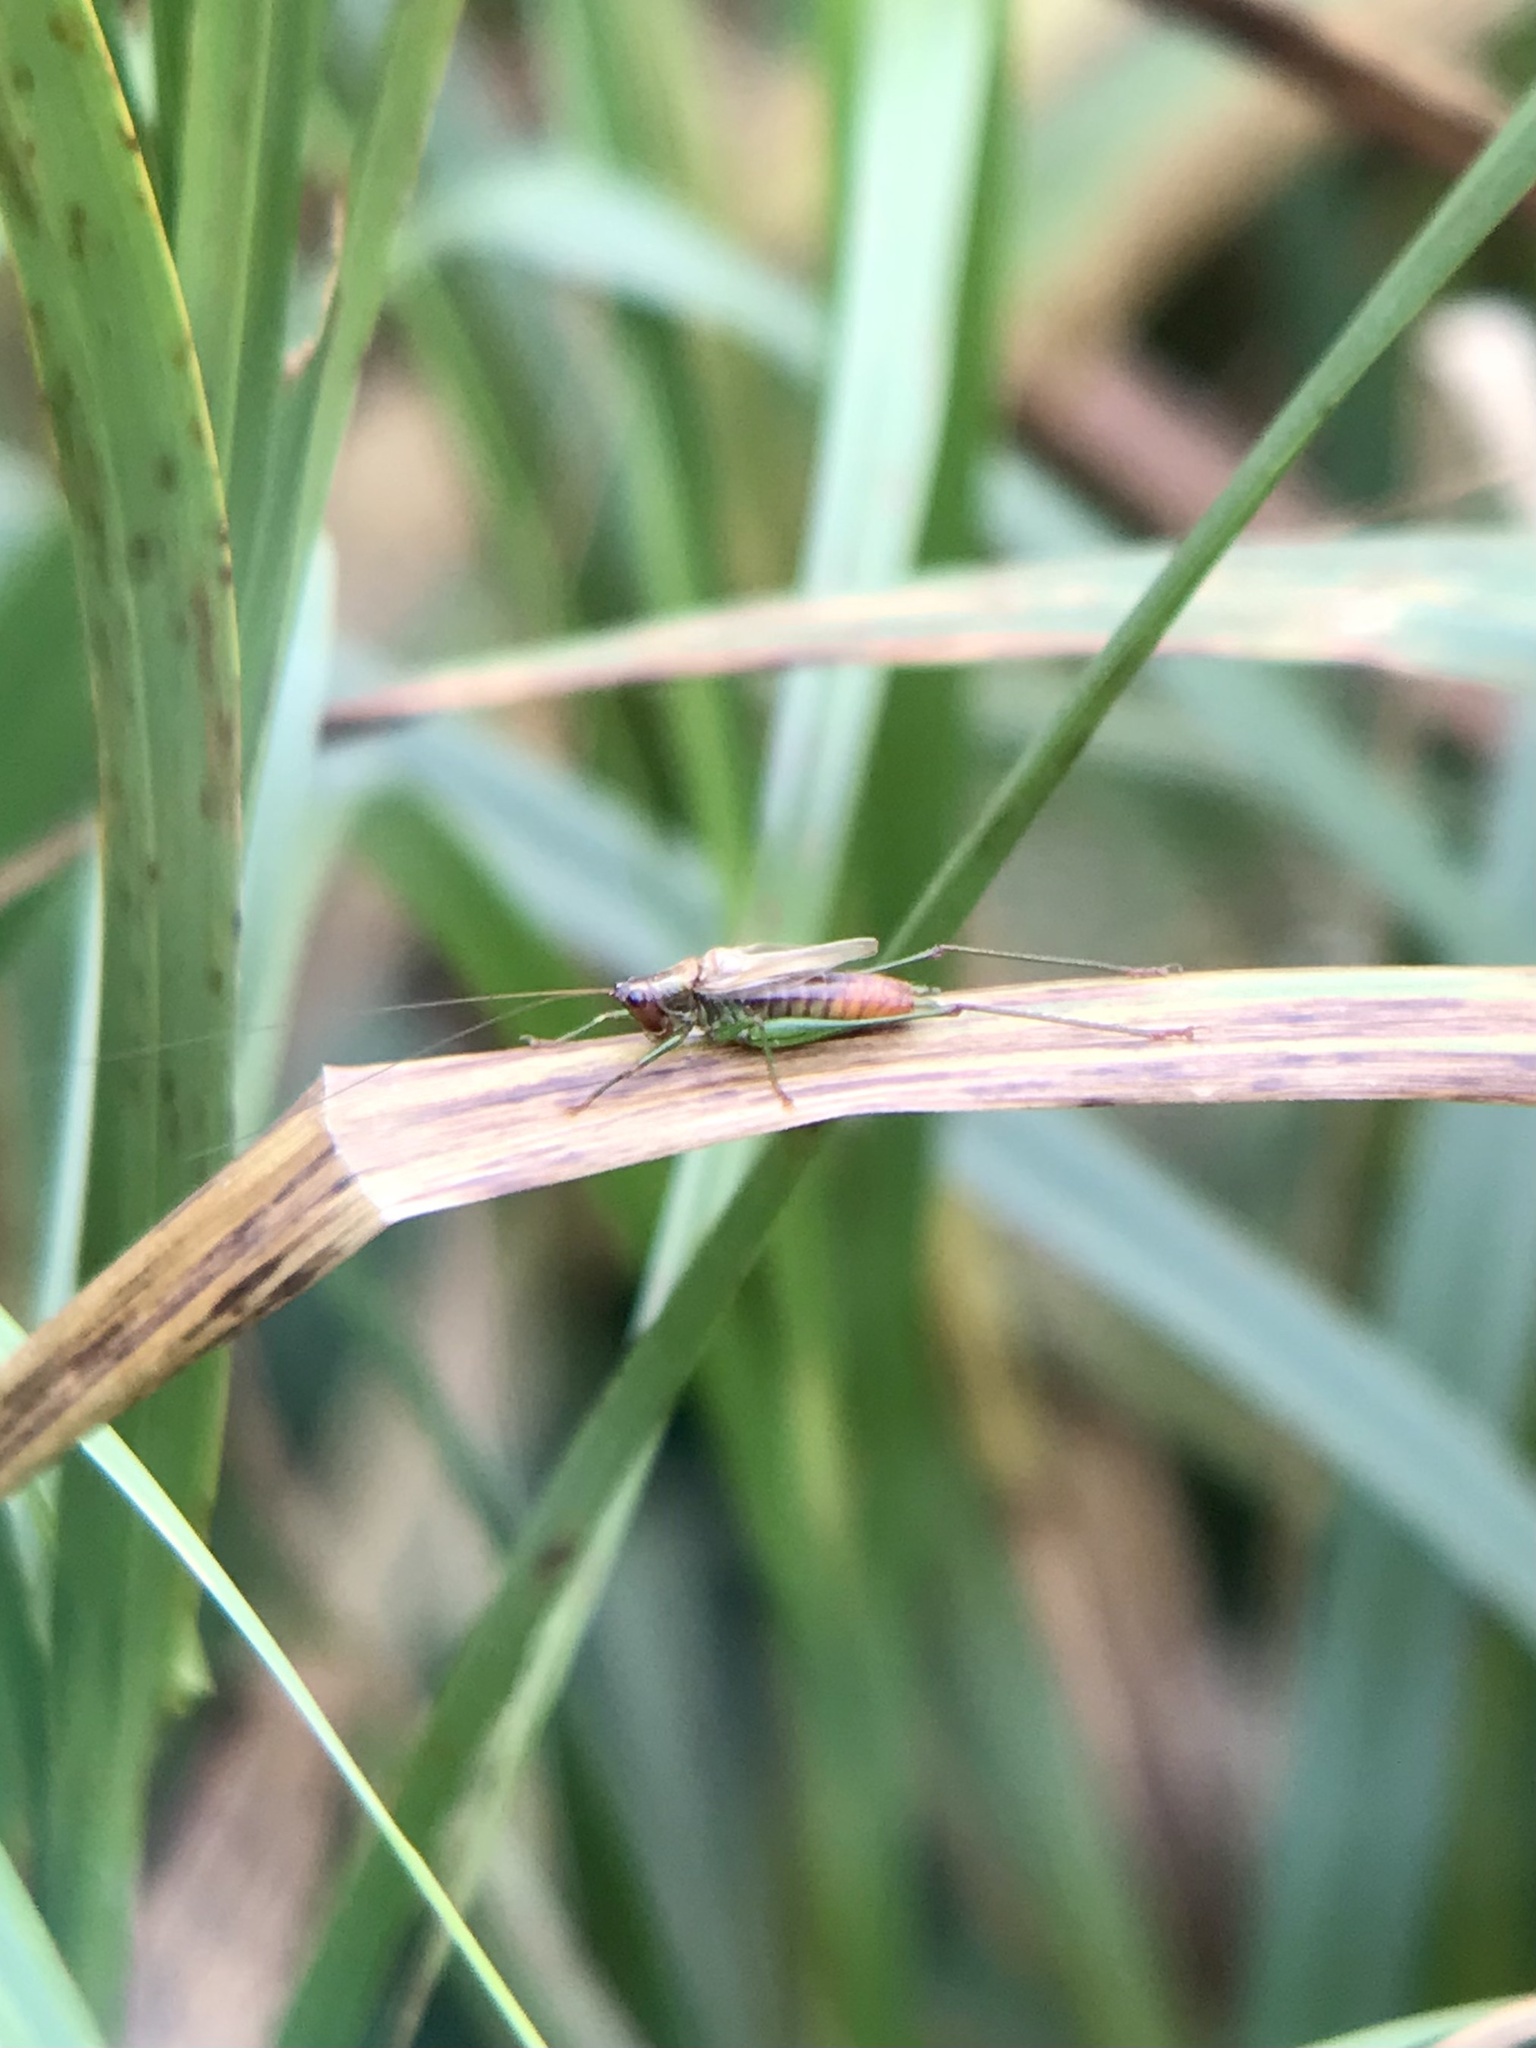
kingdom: Animalia
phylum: Arthropoda
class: Insecta
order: Orthoptera
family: Tettigoniidae
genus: Conocephalus
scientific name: Conocephalus attenuatus
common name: Long-tailed meadow katydid
